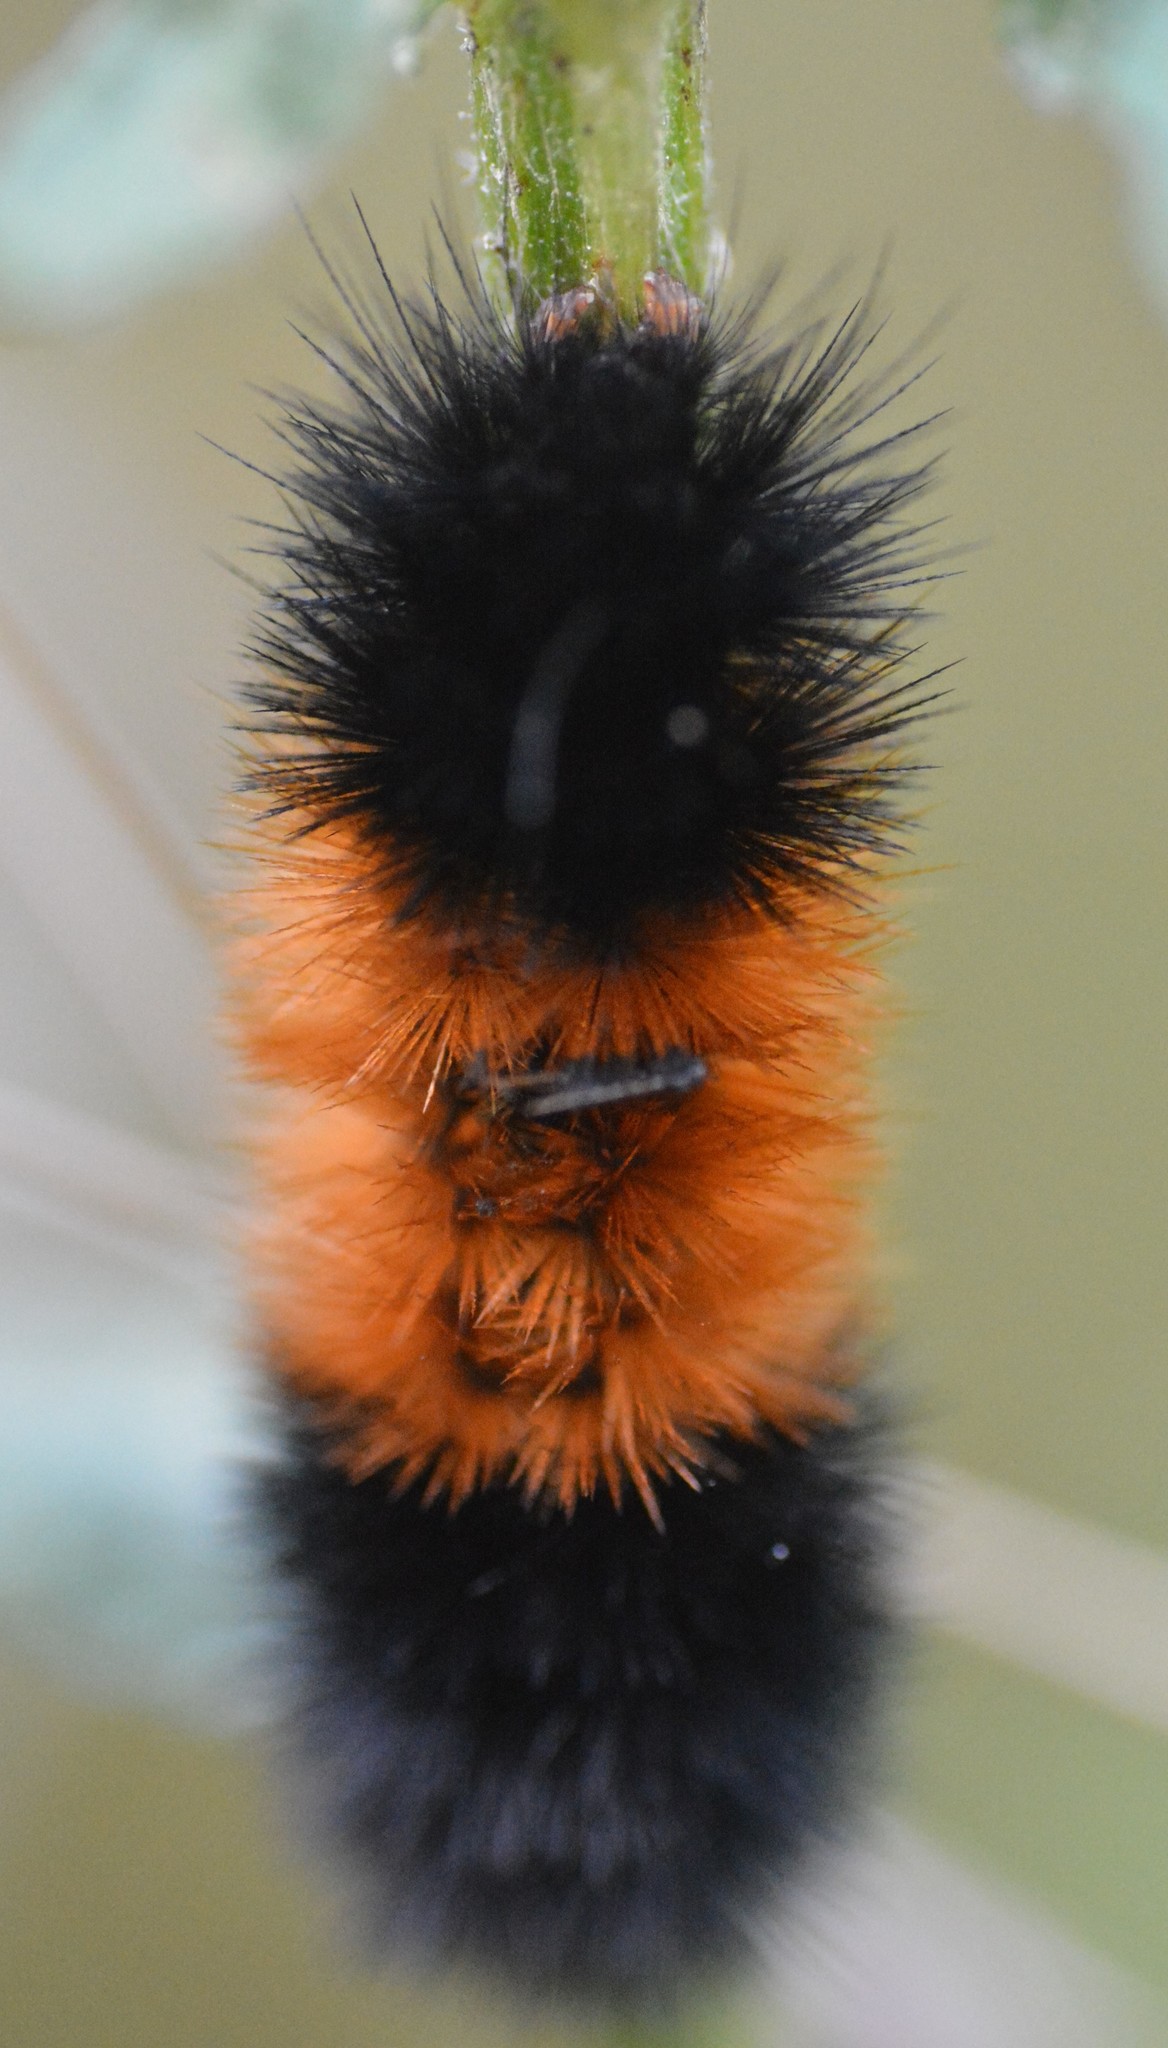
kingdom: Animalia
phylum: Arthropoda
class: Insecta
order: Lepidoptera
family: Erebidae
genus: Pyrrharctia
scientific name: Pyrrharctia isabella
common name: Isabella tiger moth
